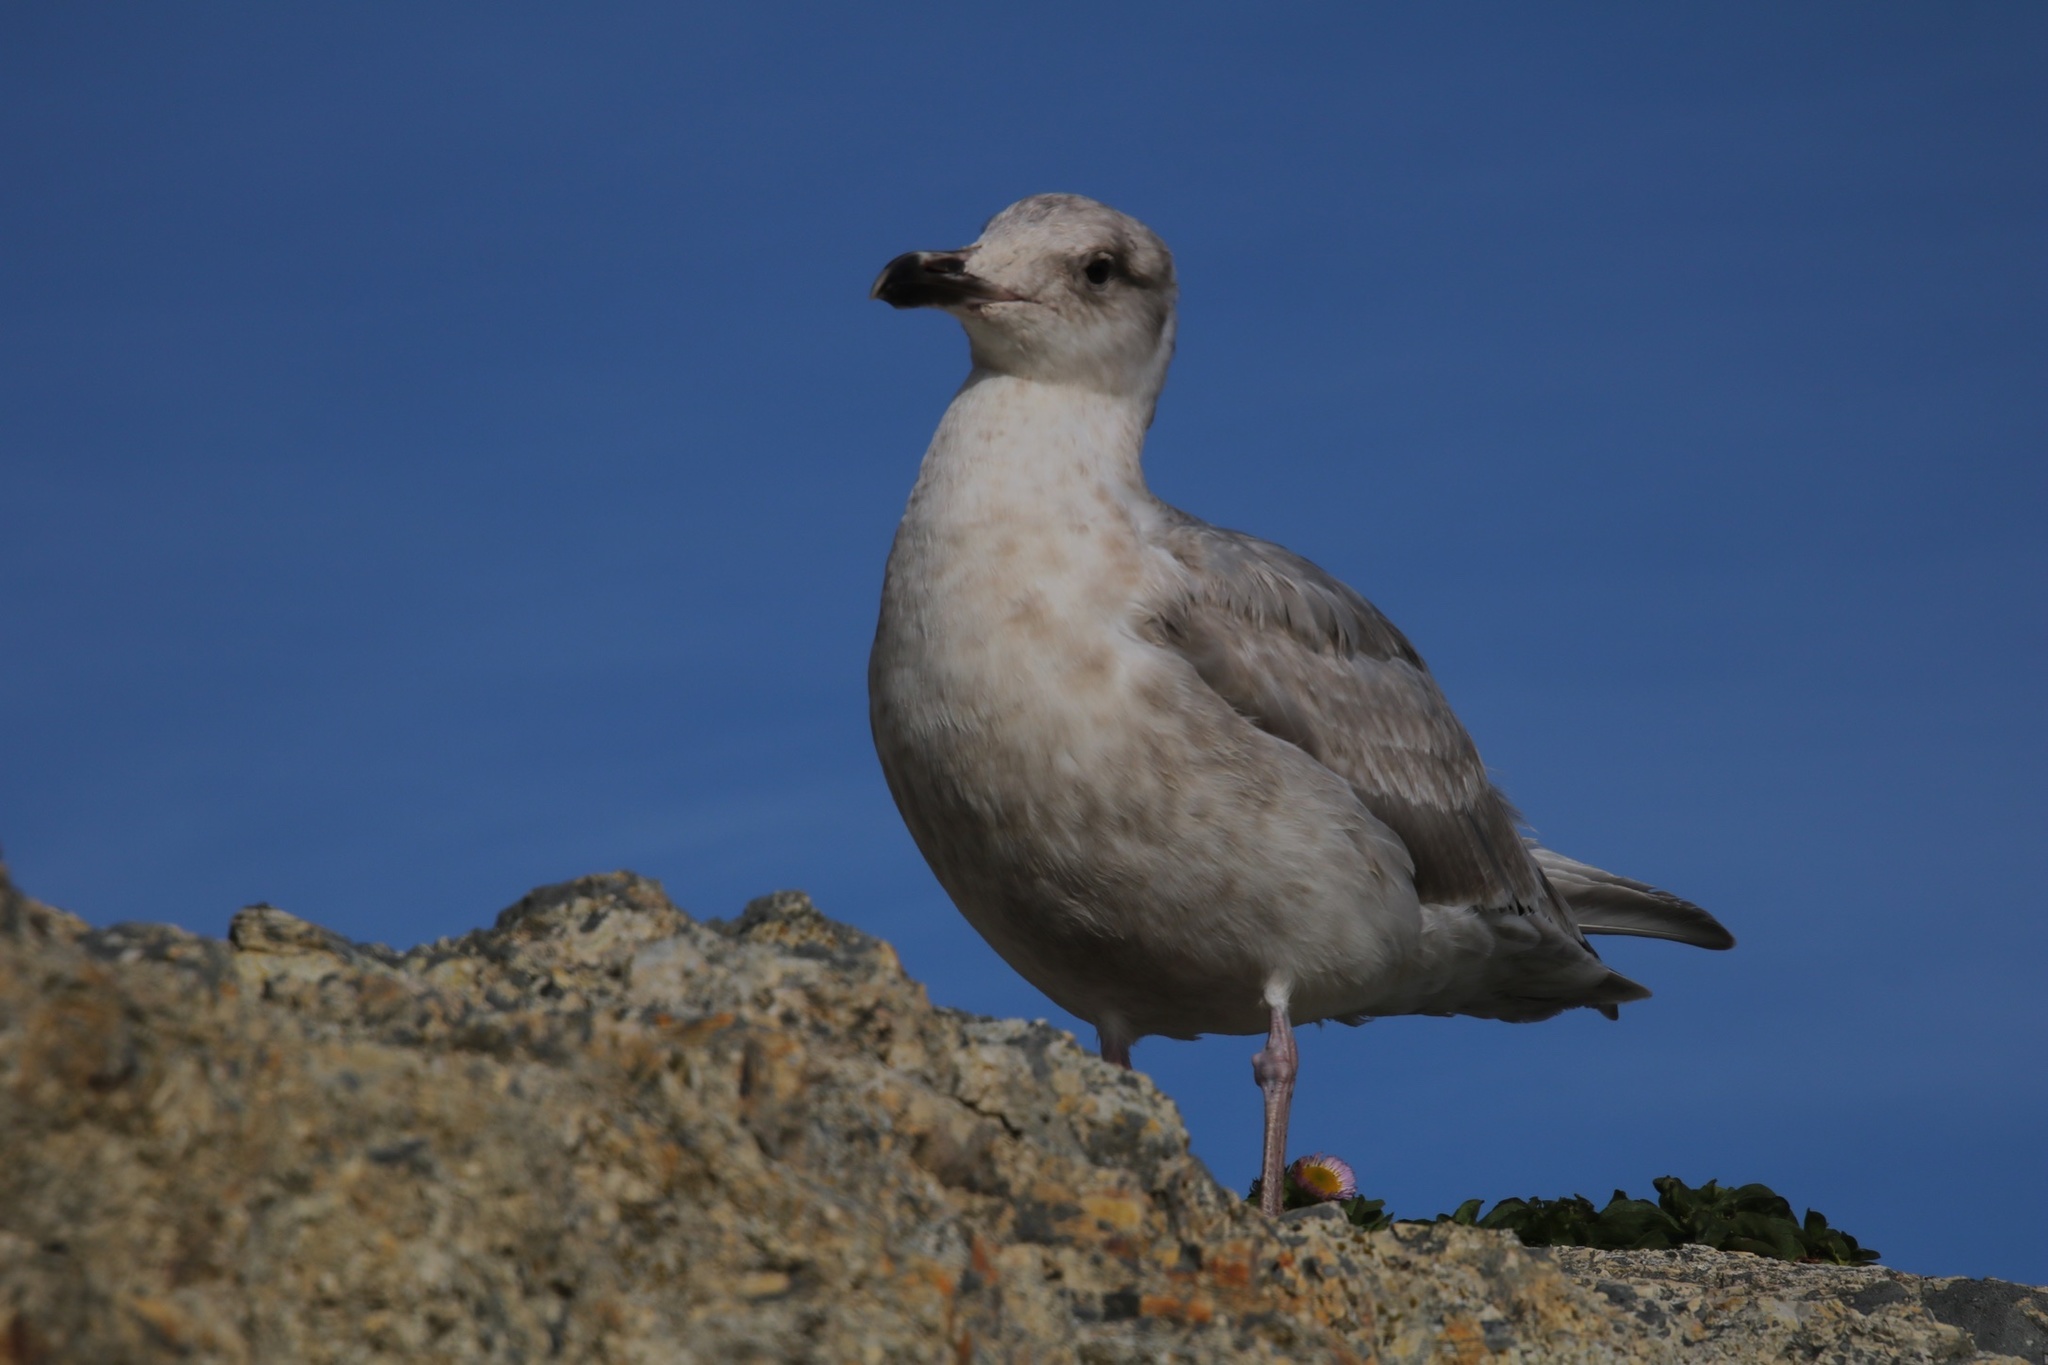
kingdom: Animalia
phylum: Chordata
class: Aves
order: Charadriiformes
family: Laridae
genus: Larus
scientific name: Larus glaucescens
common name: Glaucous-winged gull
